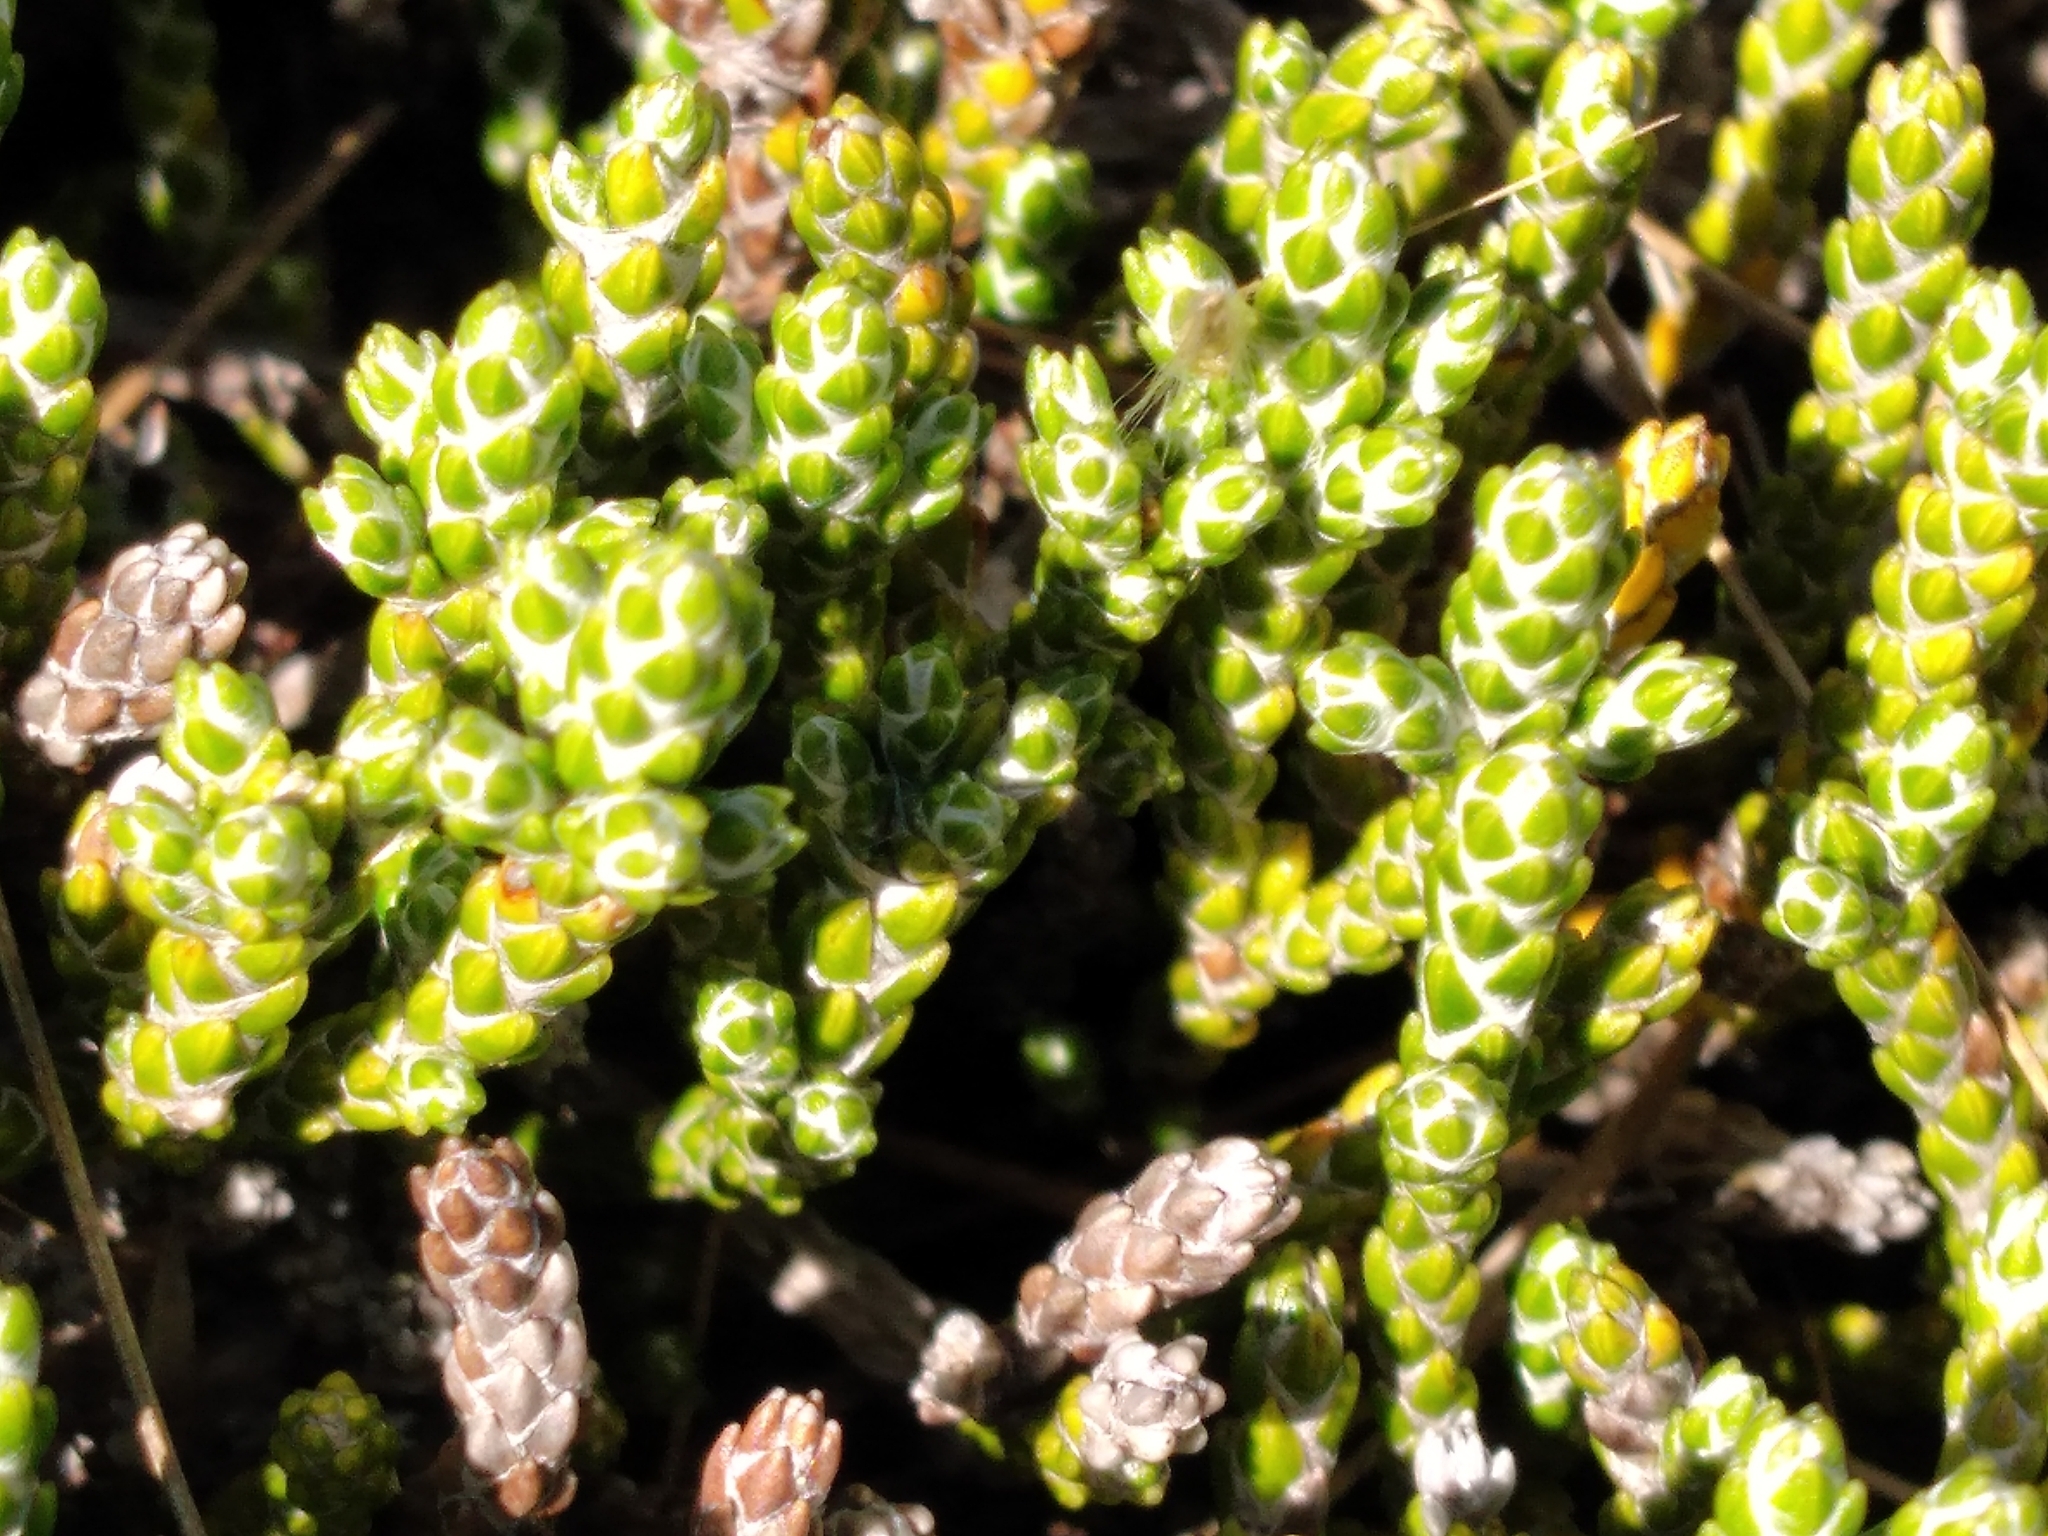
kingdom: Plantae
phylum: Tracheophyta
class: Magnoliopsida
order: Asterales
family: Asteraceae
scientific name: Asteraceae
